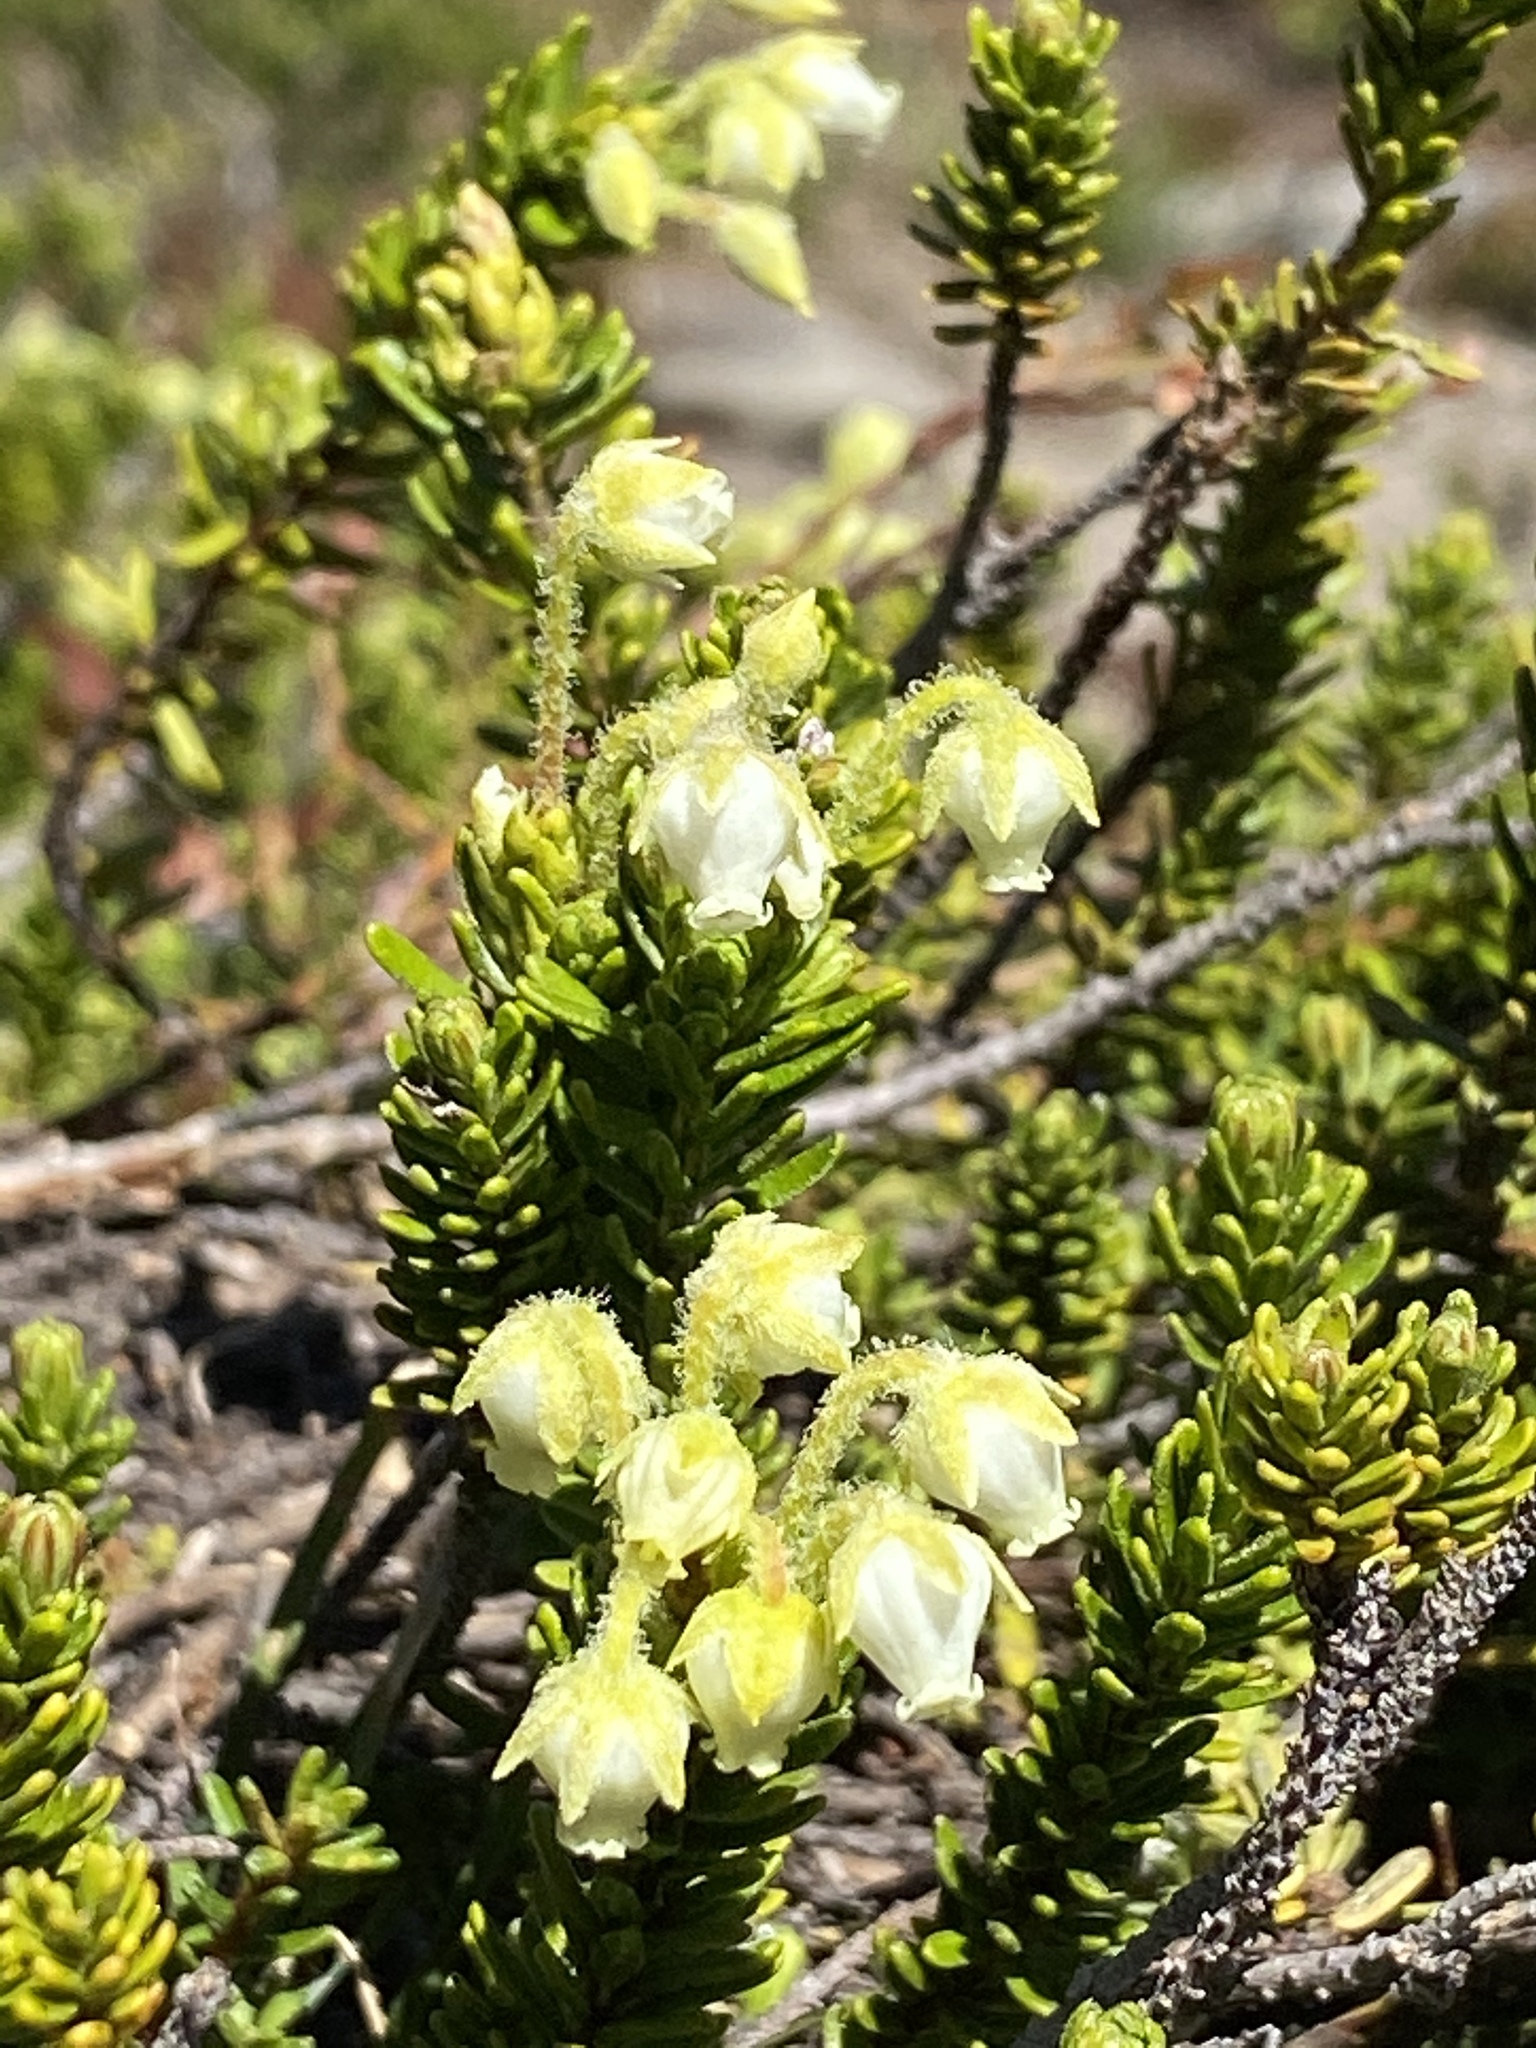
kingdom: Plantae
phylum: Tracheophyta
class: Magnoliopsida
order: Ericales
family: Ericaceae
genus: Phyllodoce
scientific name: Phyllodoce glanduliflora
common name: Cream mountain heather
